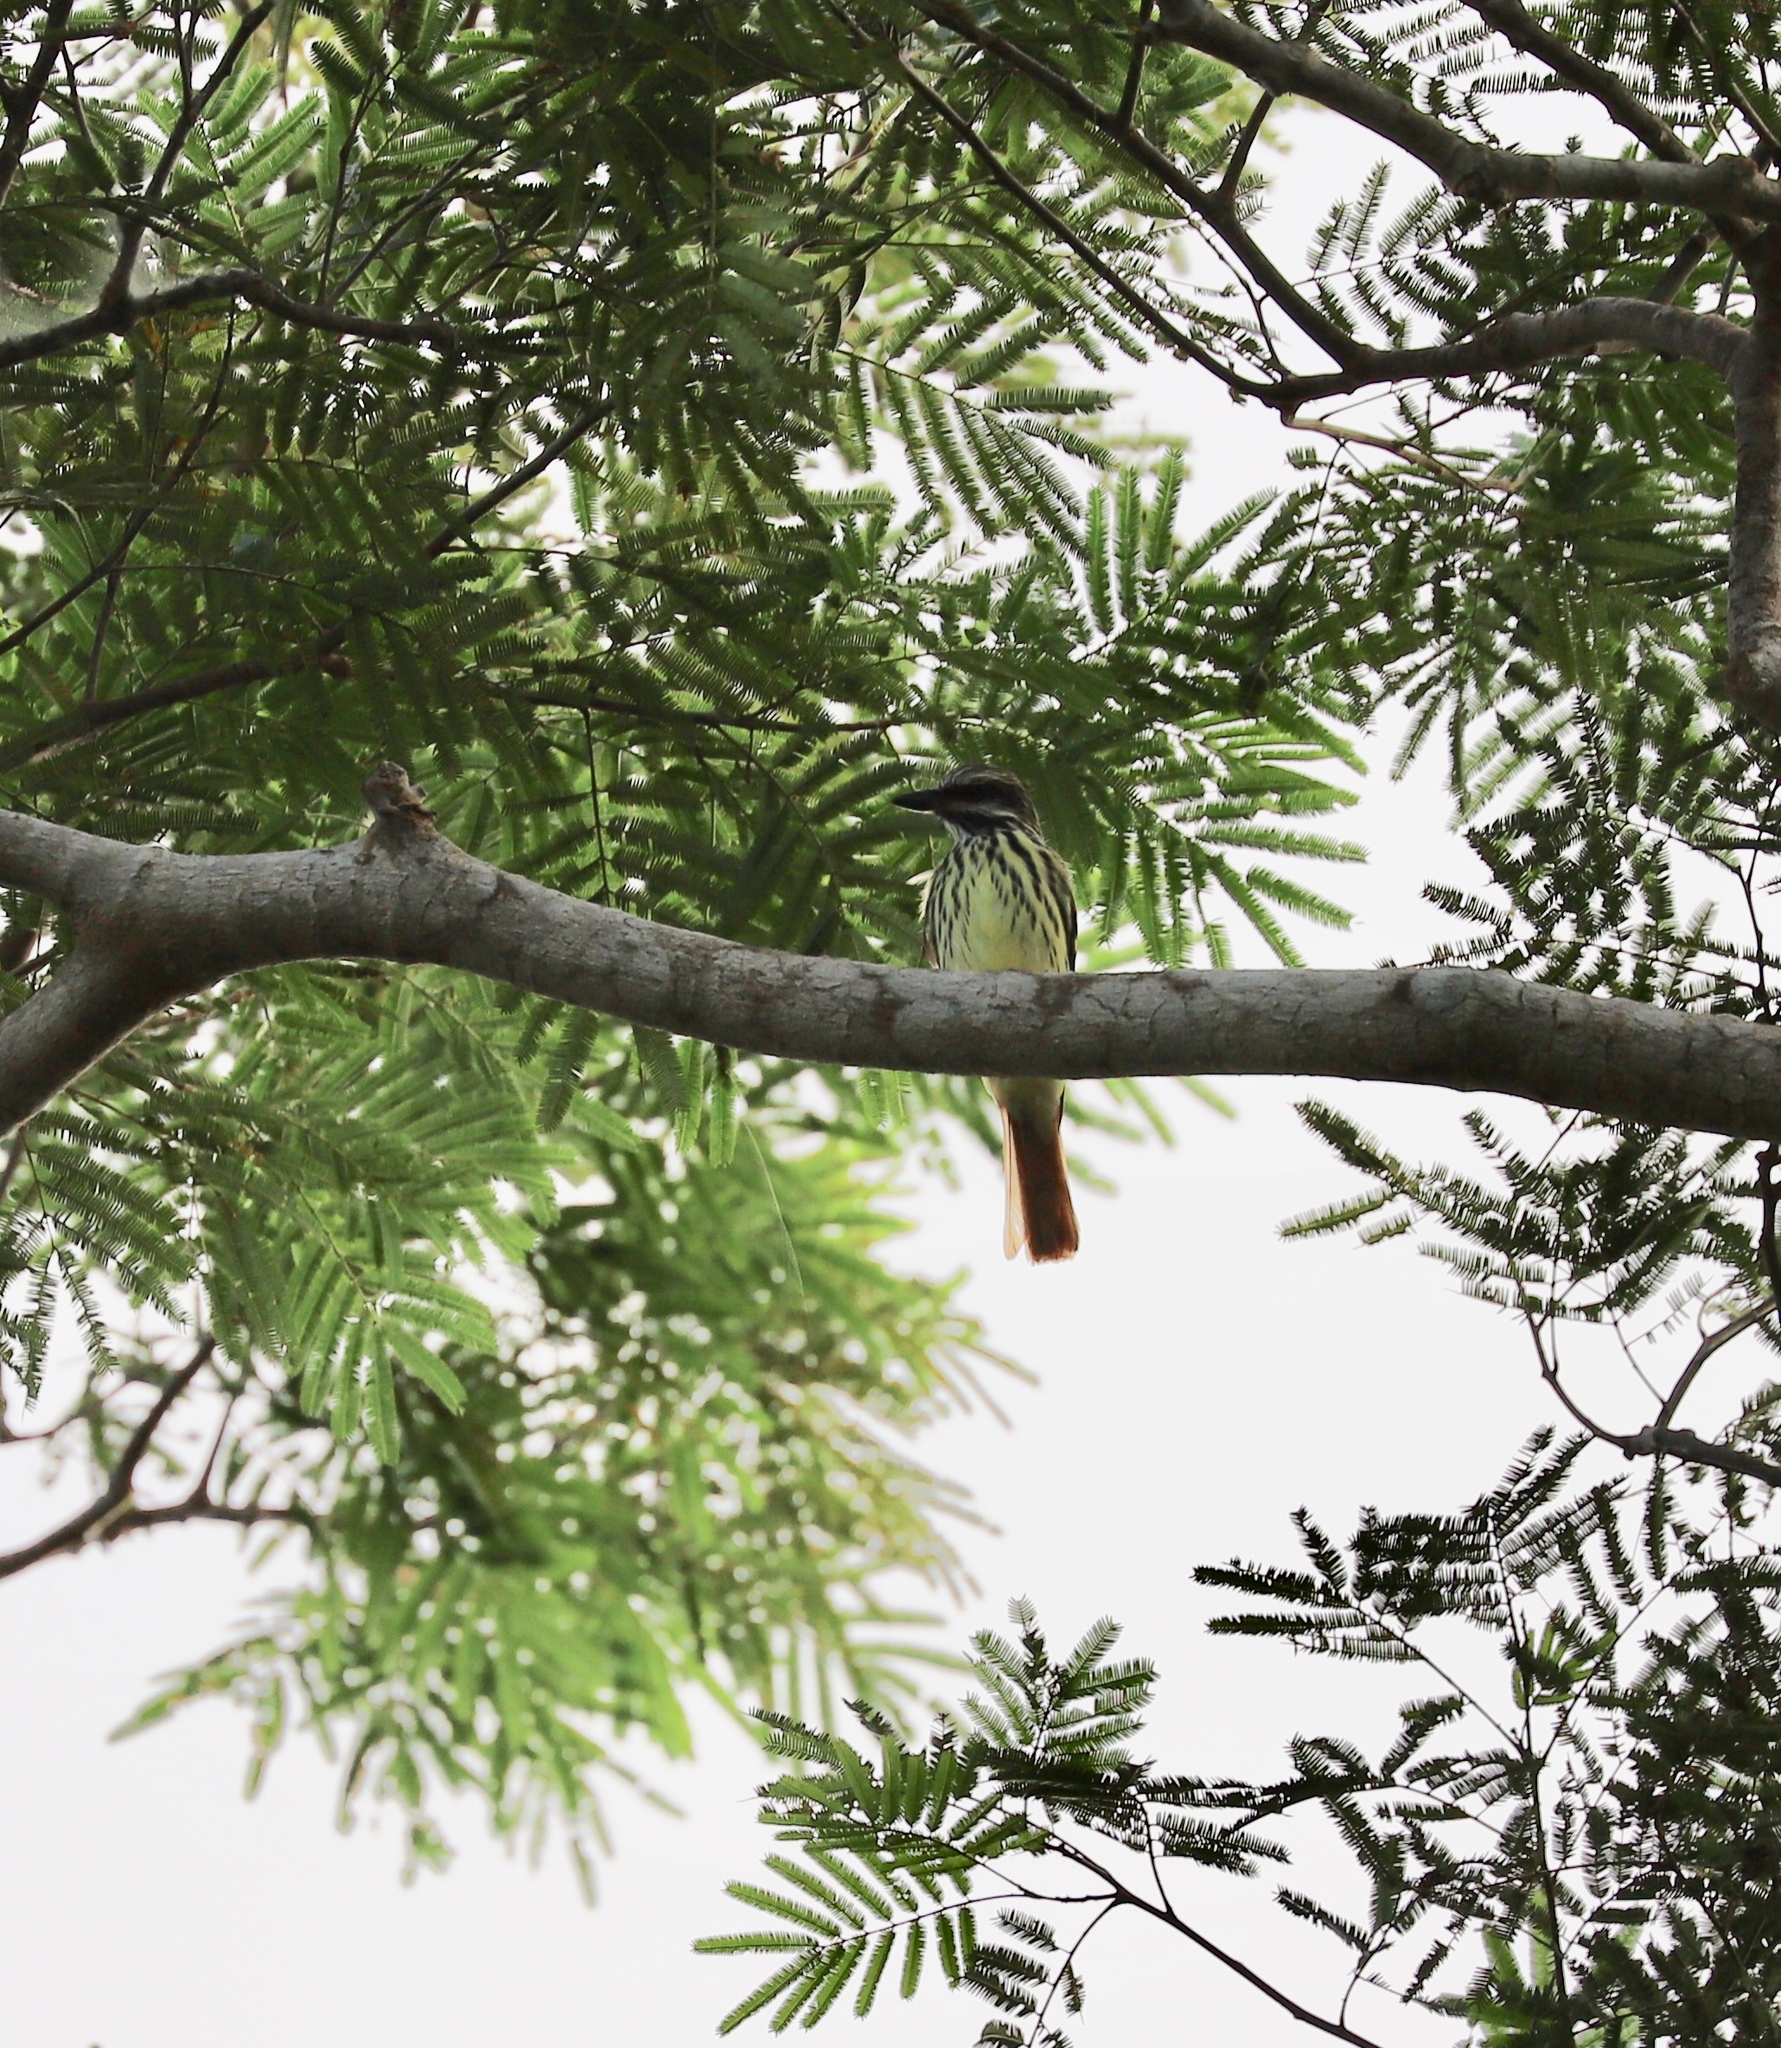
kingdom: Animalia
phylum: Chordata
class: Aves
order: Passeriformes
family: Tyrannidae
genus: Myiodynastes
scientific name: Myiodynastes luteiventris
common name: Sulphur-bellied flycatcher
